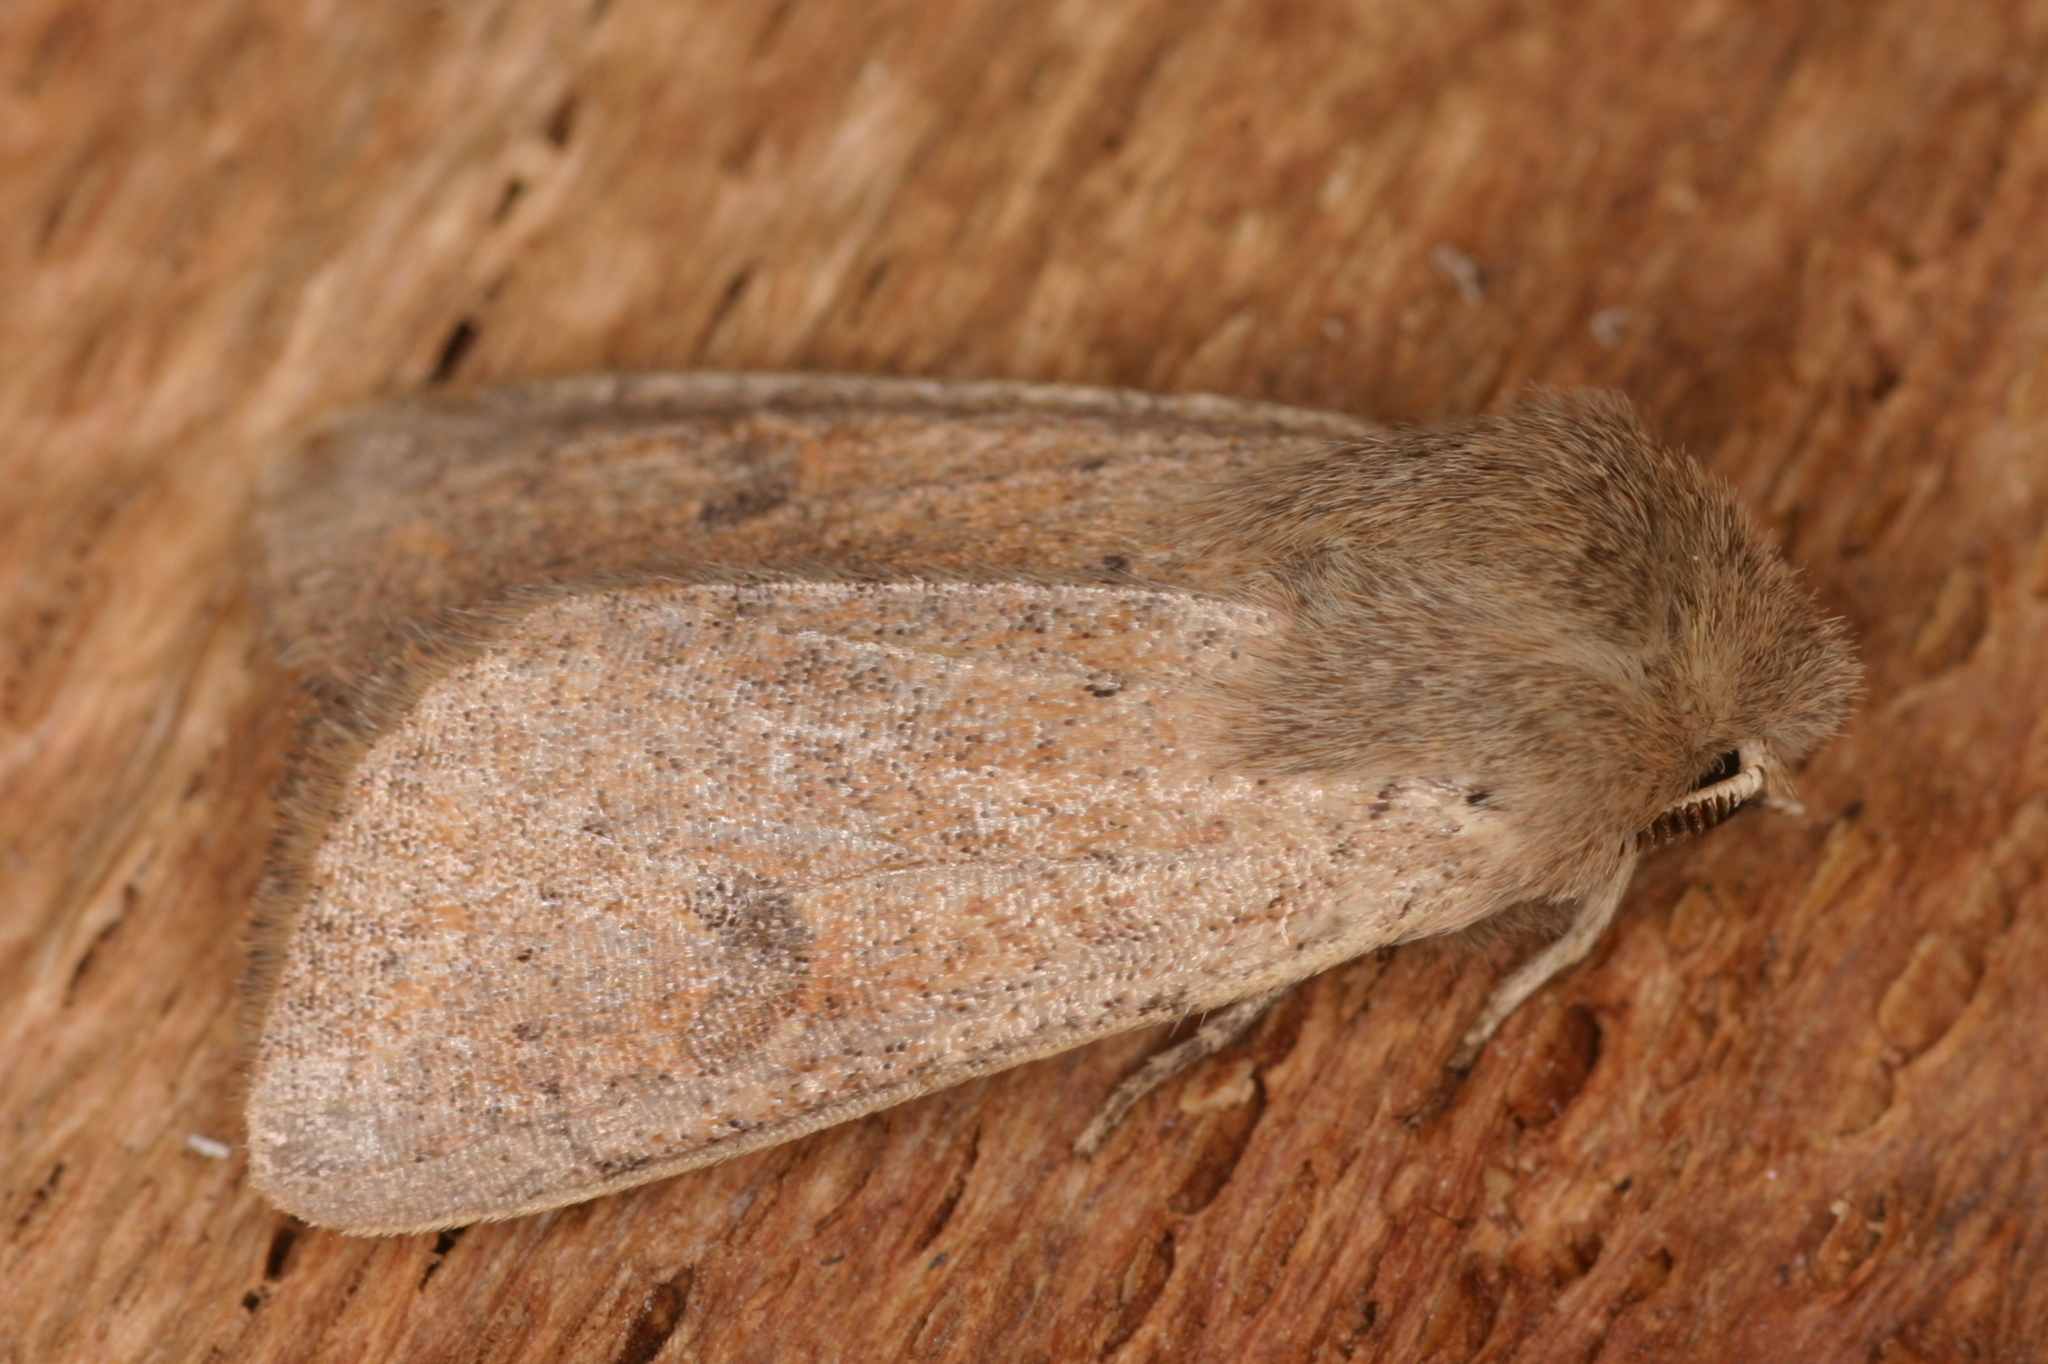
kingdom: Animalia
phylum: Arthropoda
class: Insecta
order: Lepidoptera
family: Noctuidae
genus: Orthosia
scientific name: Orthosia cruda
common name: Small quaker
